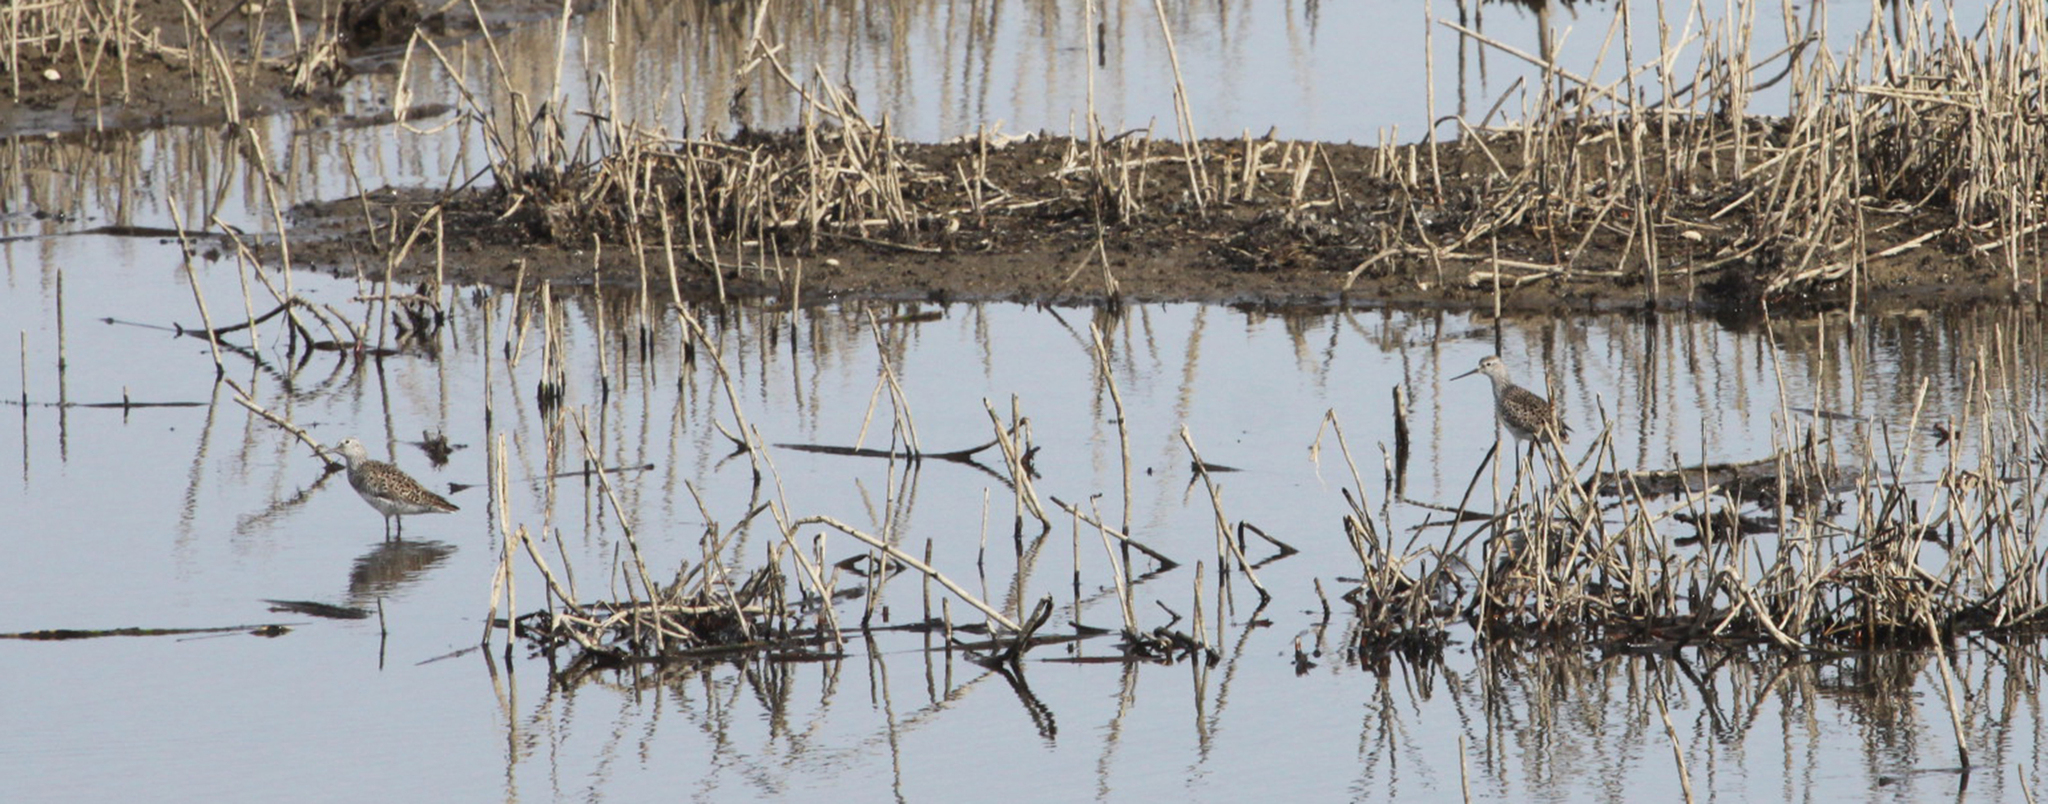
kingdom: Animalia
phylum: Chordata
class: Aves
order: Charadriiformes
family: Scolopacidae
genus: Tringa
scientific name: Tringa stagnatilis
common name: Marsh sandpiper
